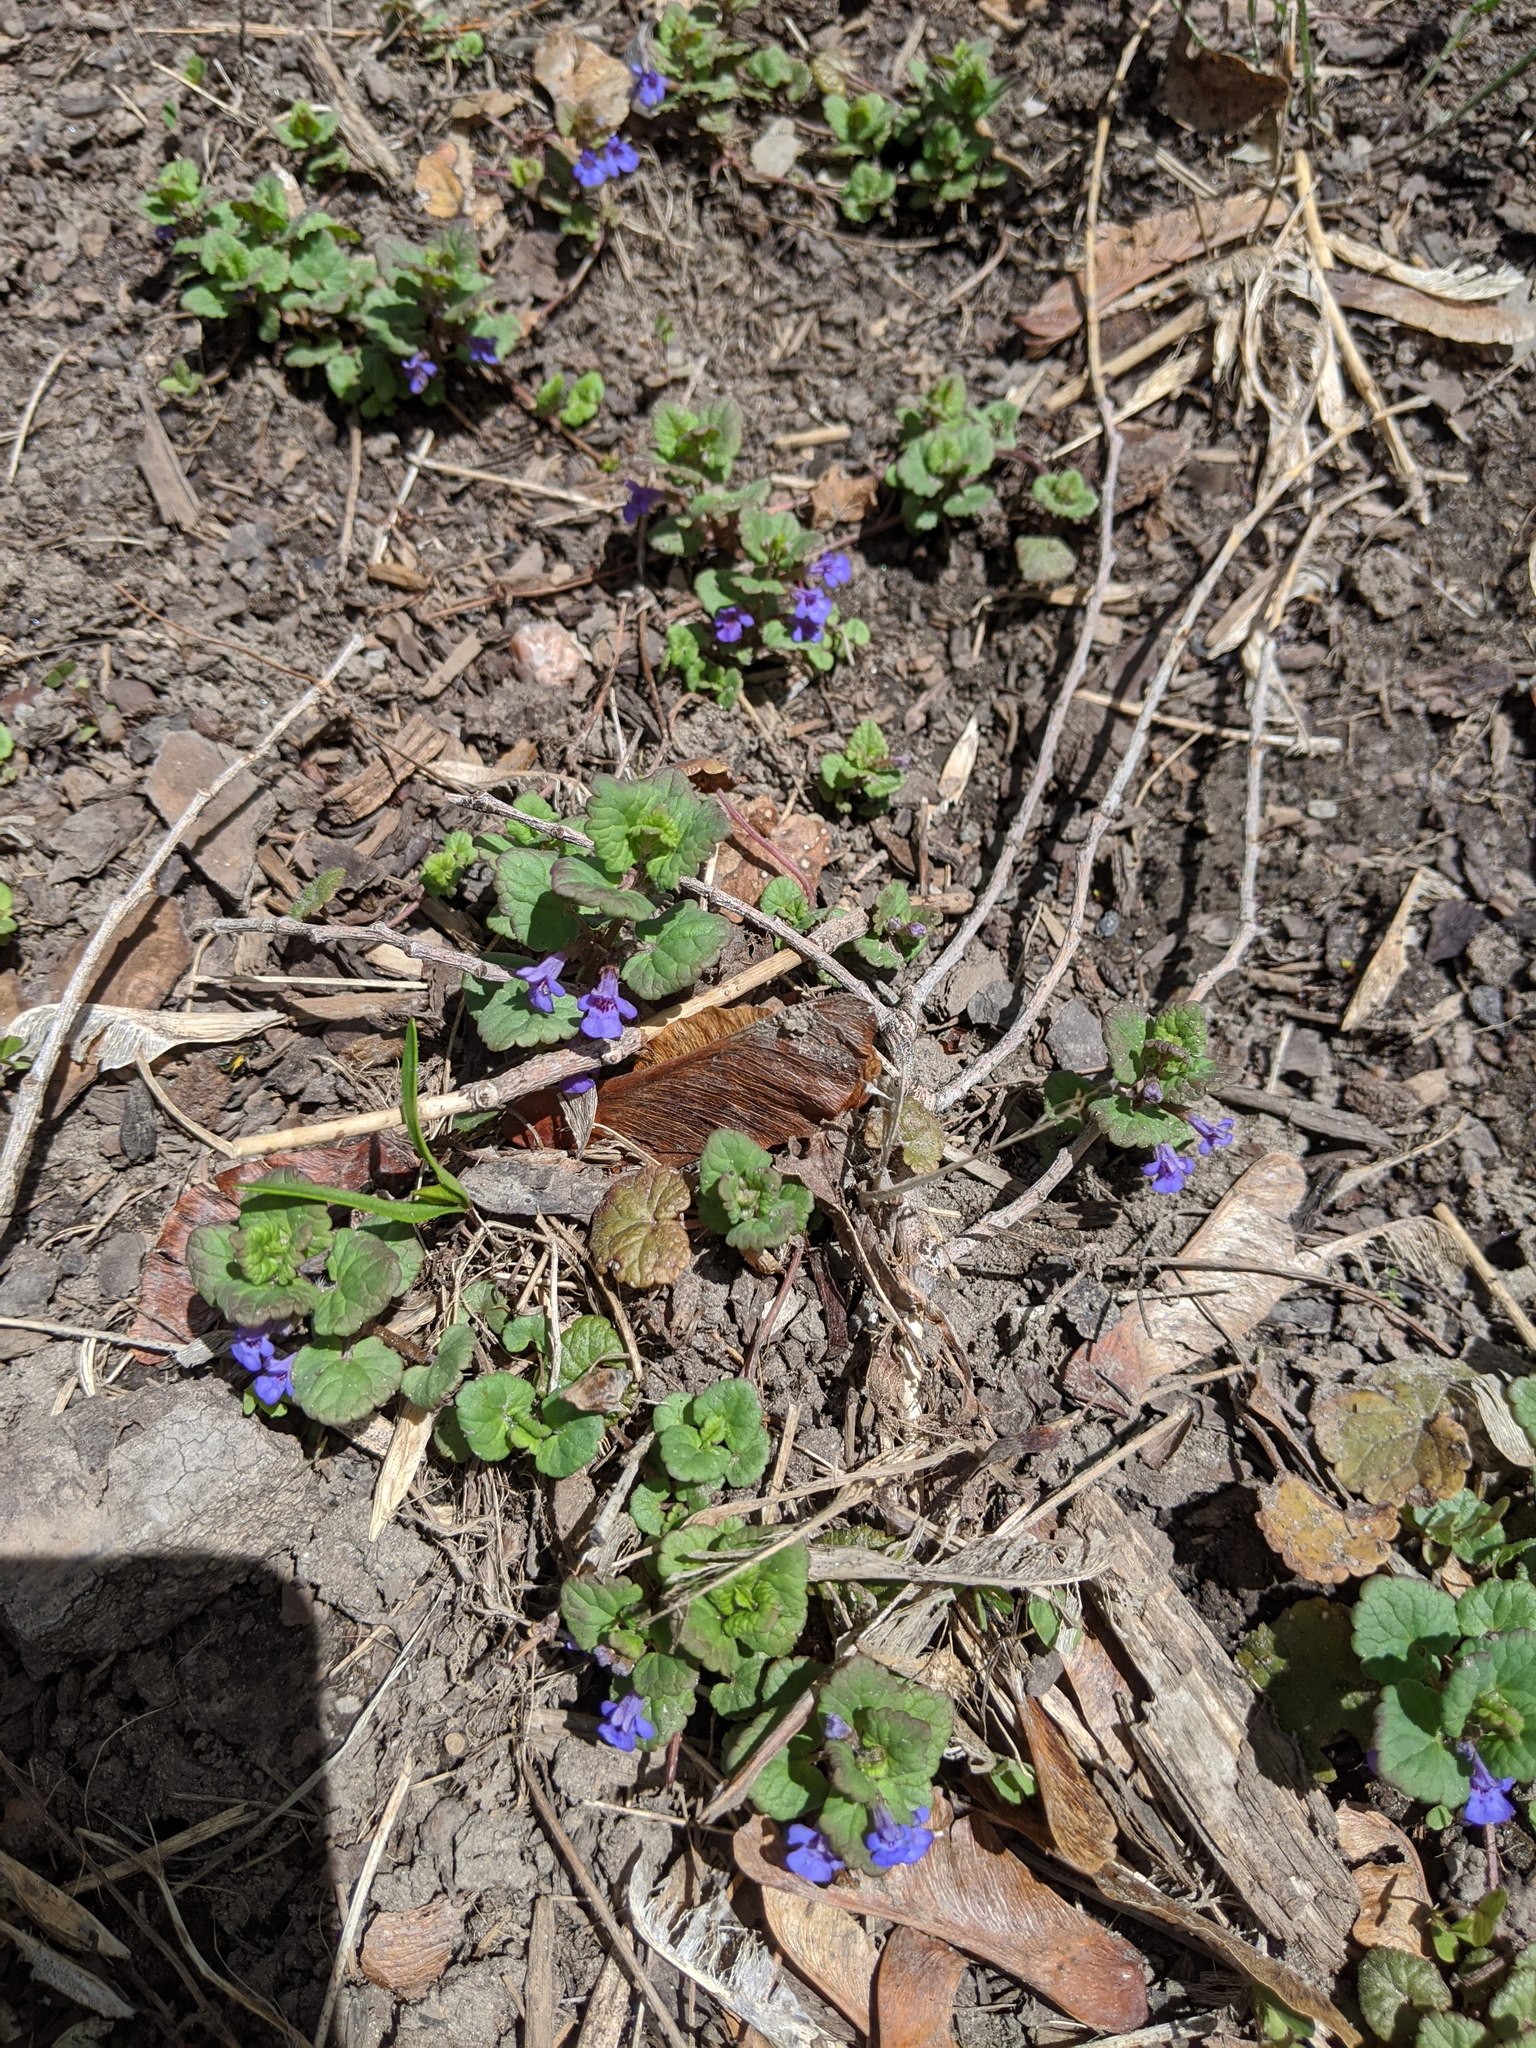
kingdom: Plantae
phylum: Tracheophyta
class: Magnoliopsida
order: Lamiales
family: Lamiaceae
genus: Glechoma
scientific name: Glechoma hederacea
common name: Ground ivy
